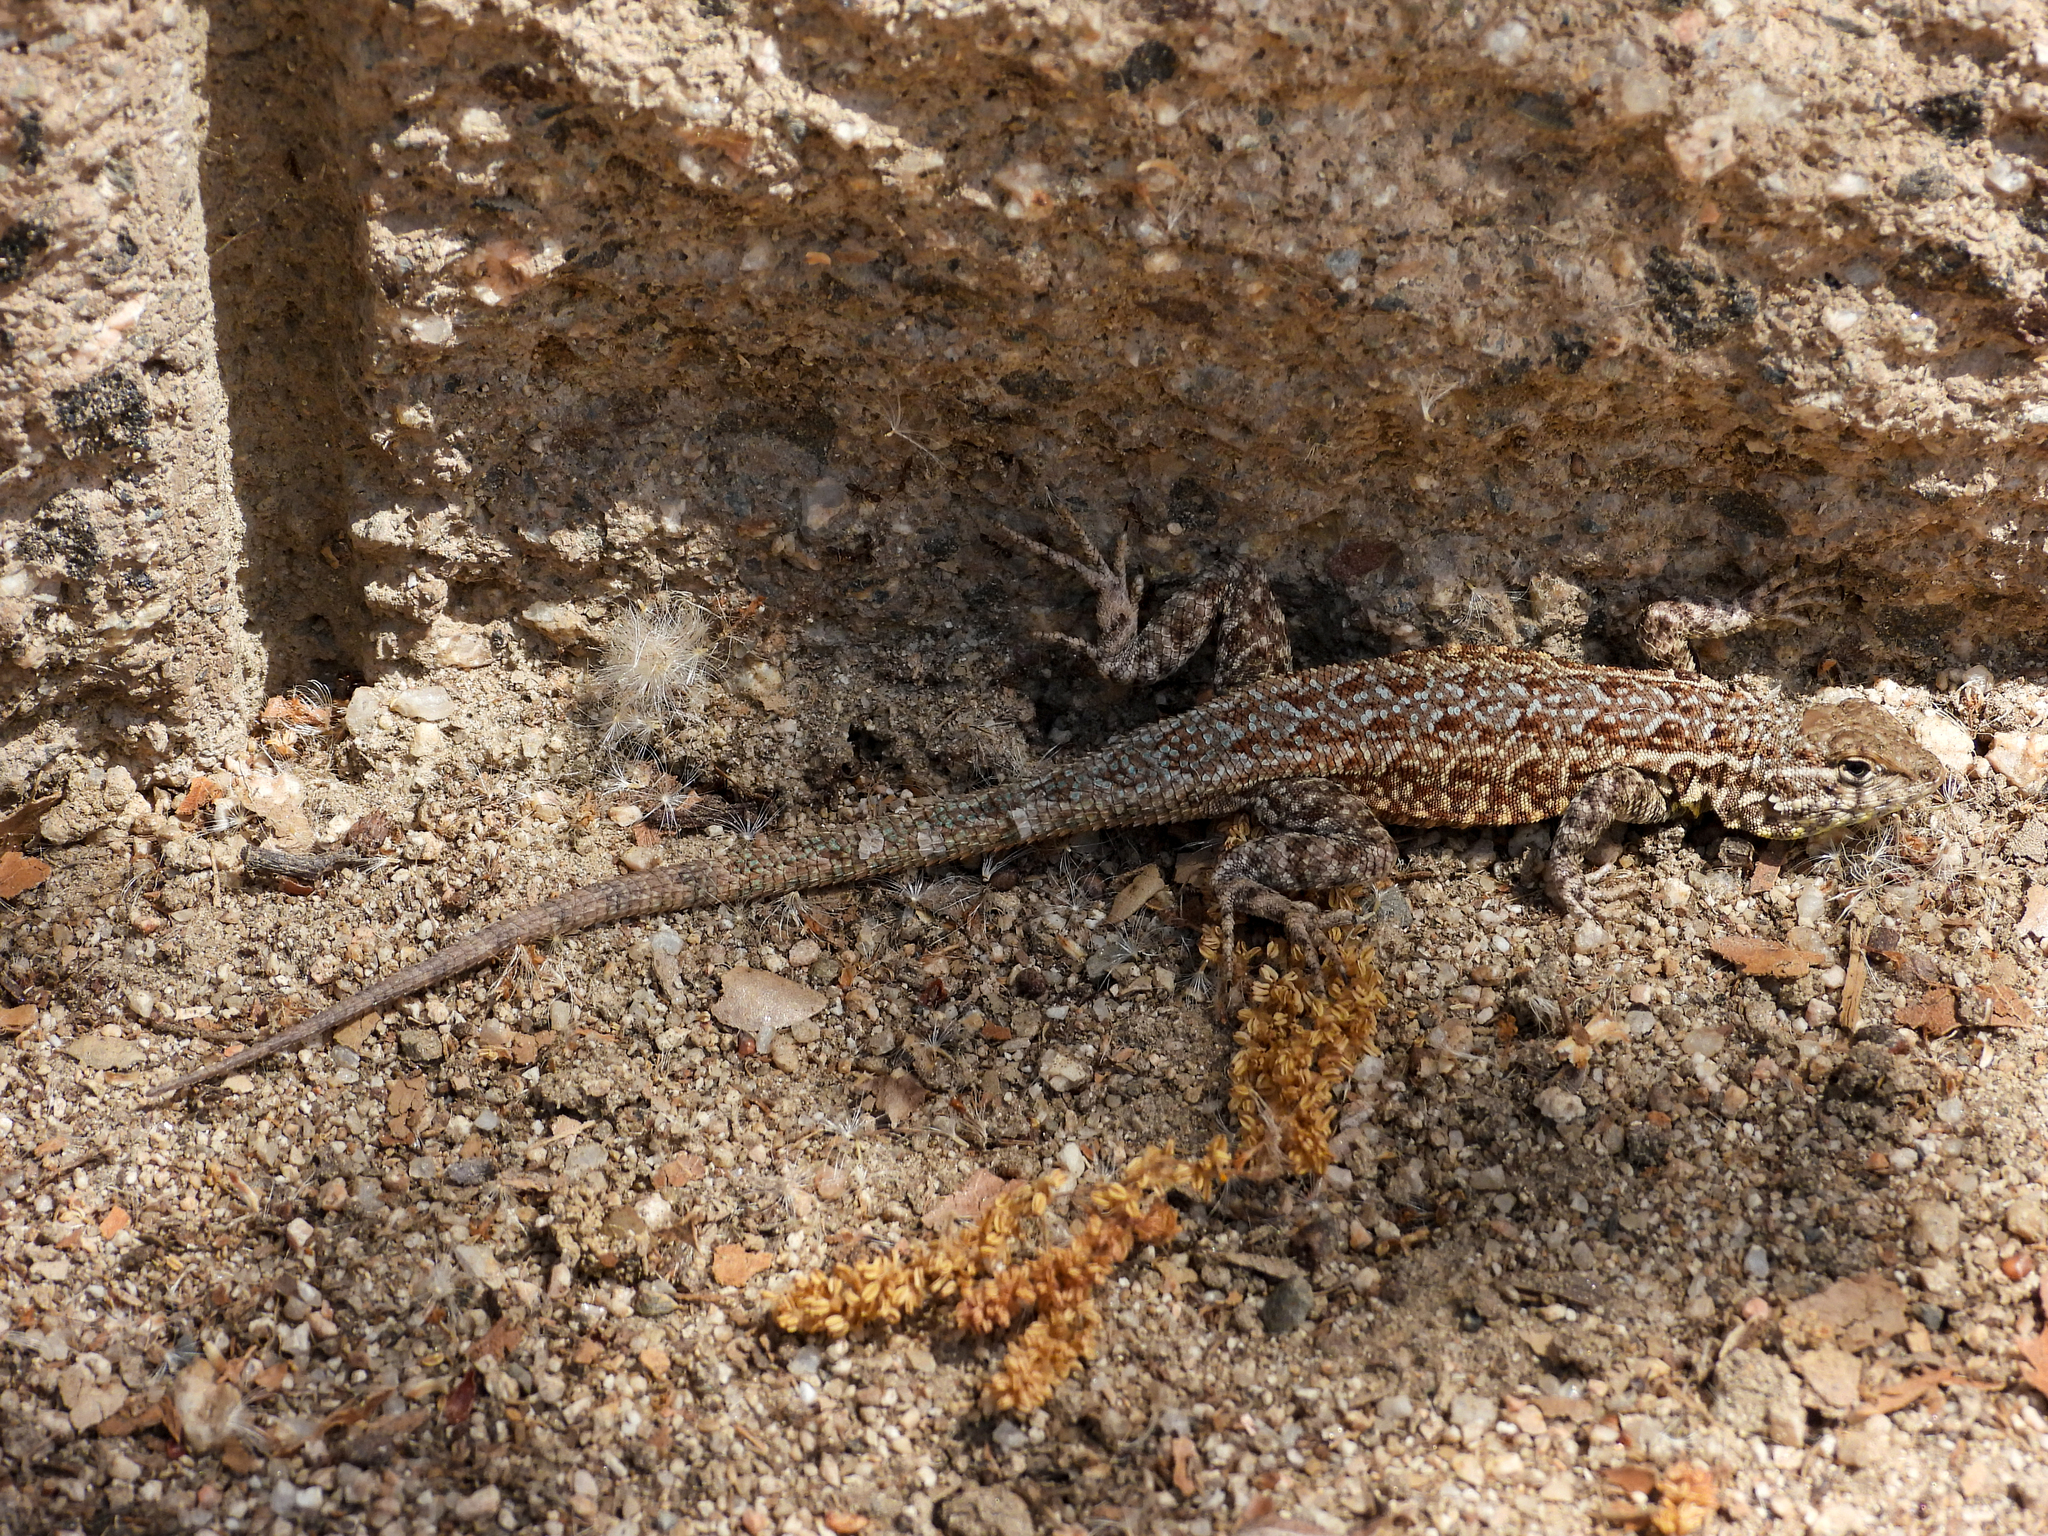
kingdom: Animalia
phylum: Chordata
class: Squamata
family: Phrynosomatidae
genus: Uta
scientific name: Uta stansburiana
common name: Side-blotched lizard
